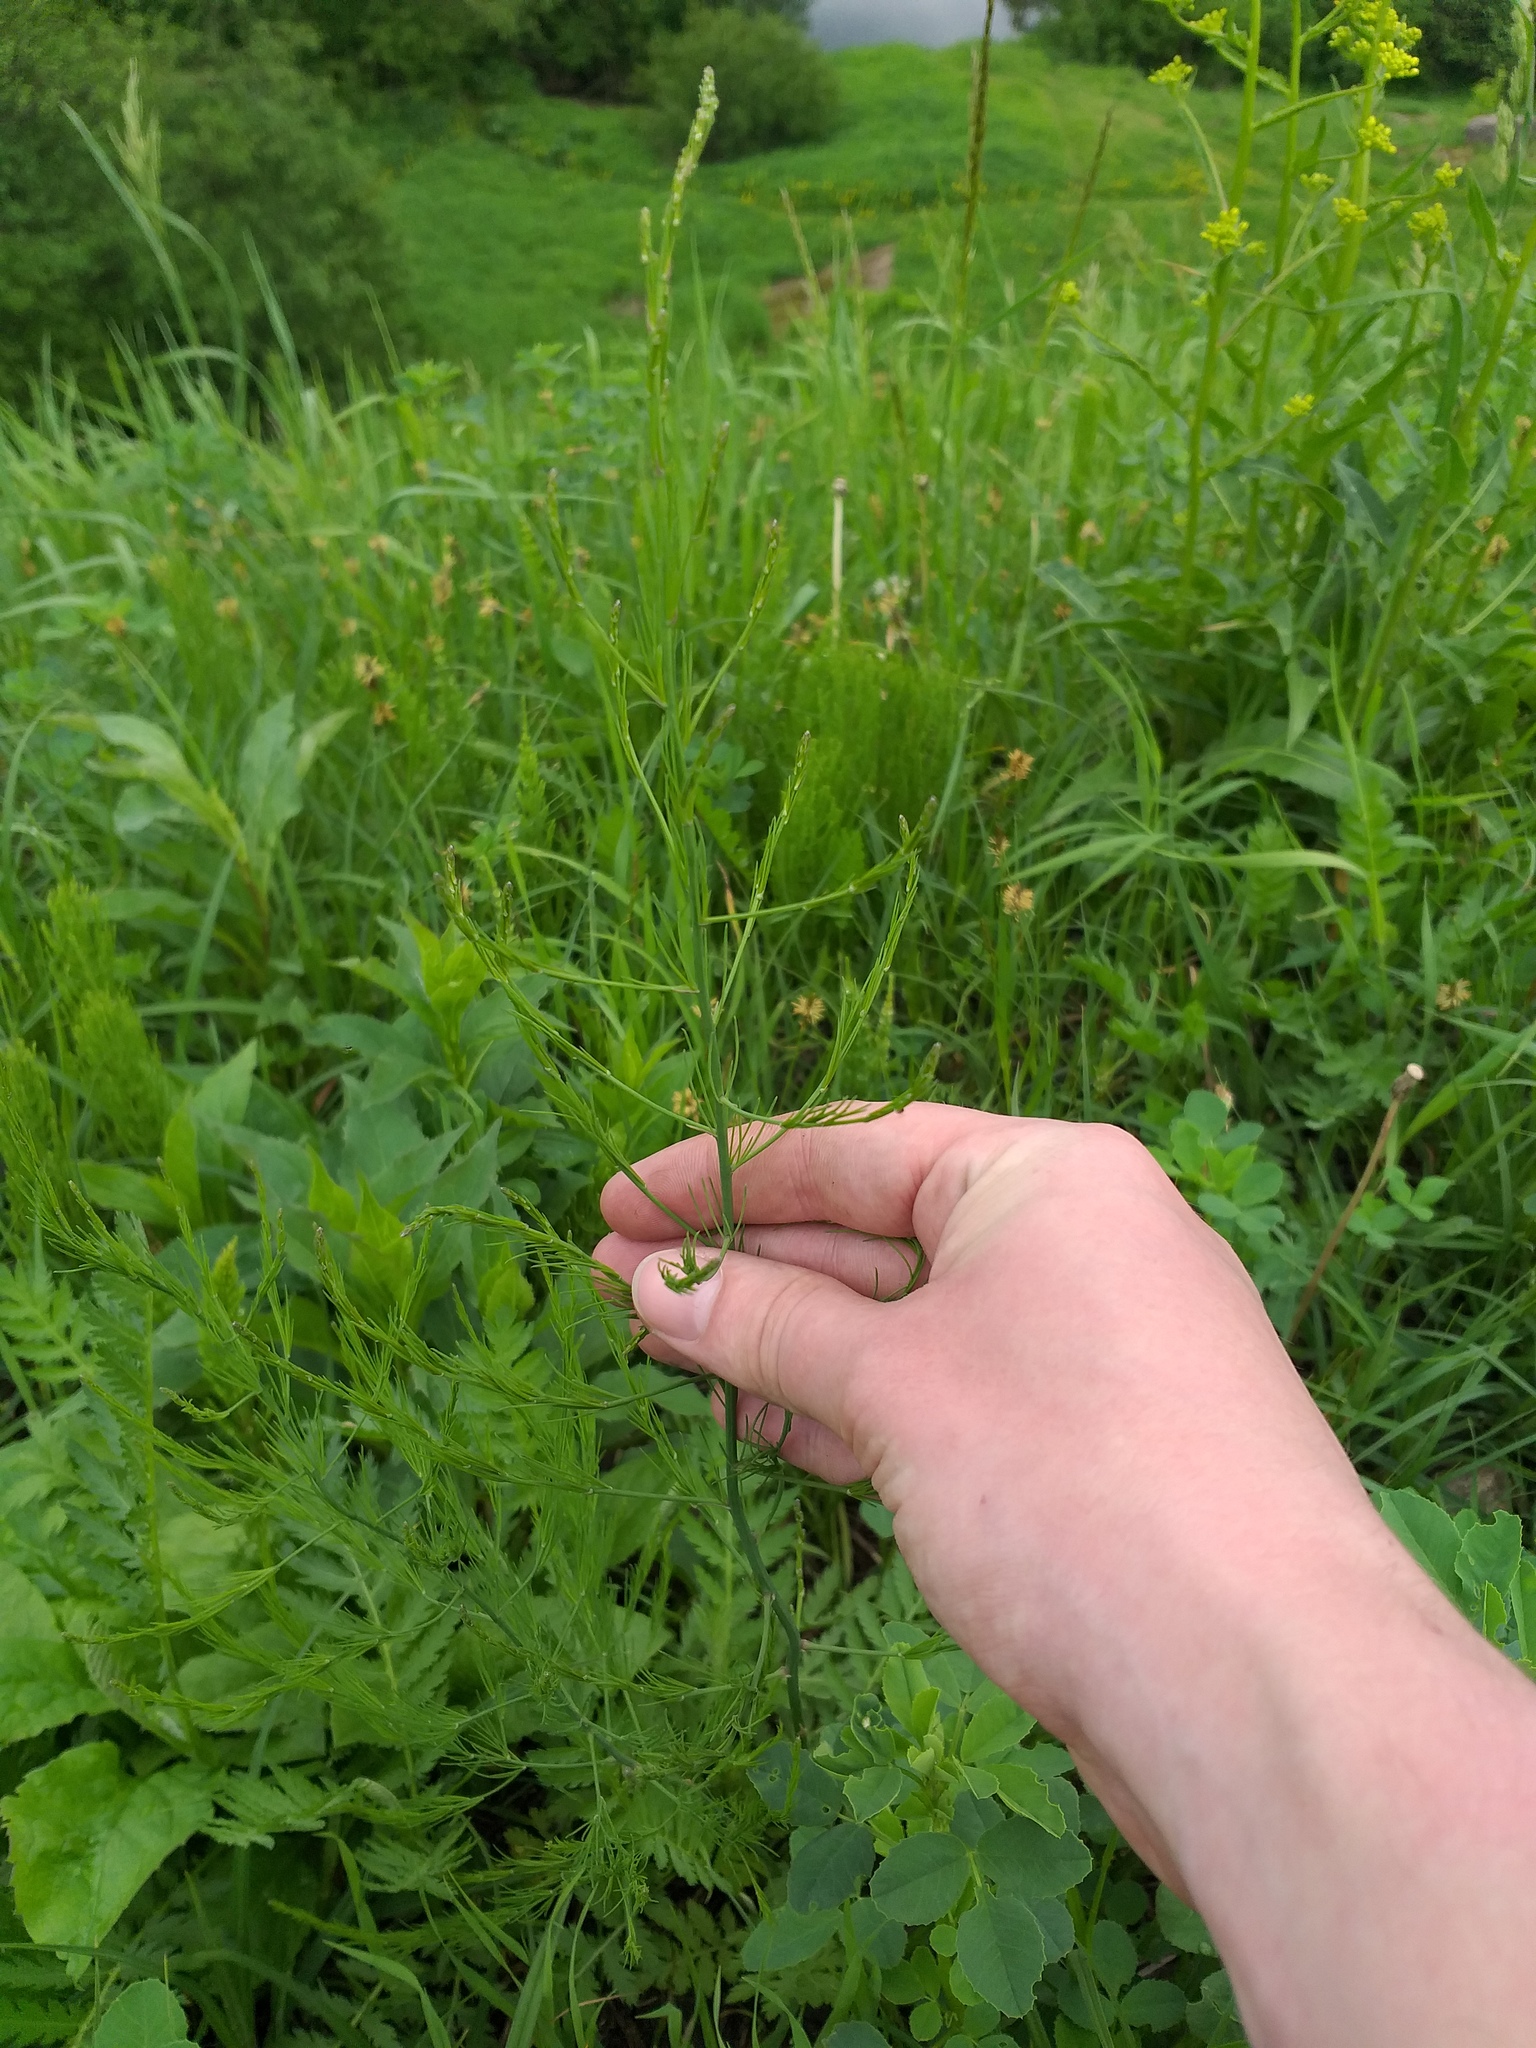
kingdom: Plantae
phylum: Tracheophyta
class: Liliopsida
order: Asparagales
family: Asparagaceae
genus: Asparagus
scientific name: Asparagus officinalis
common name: Garden asparagus
